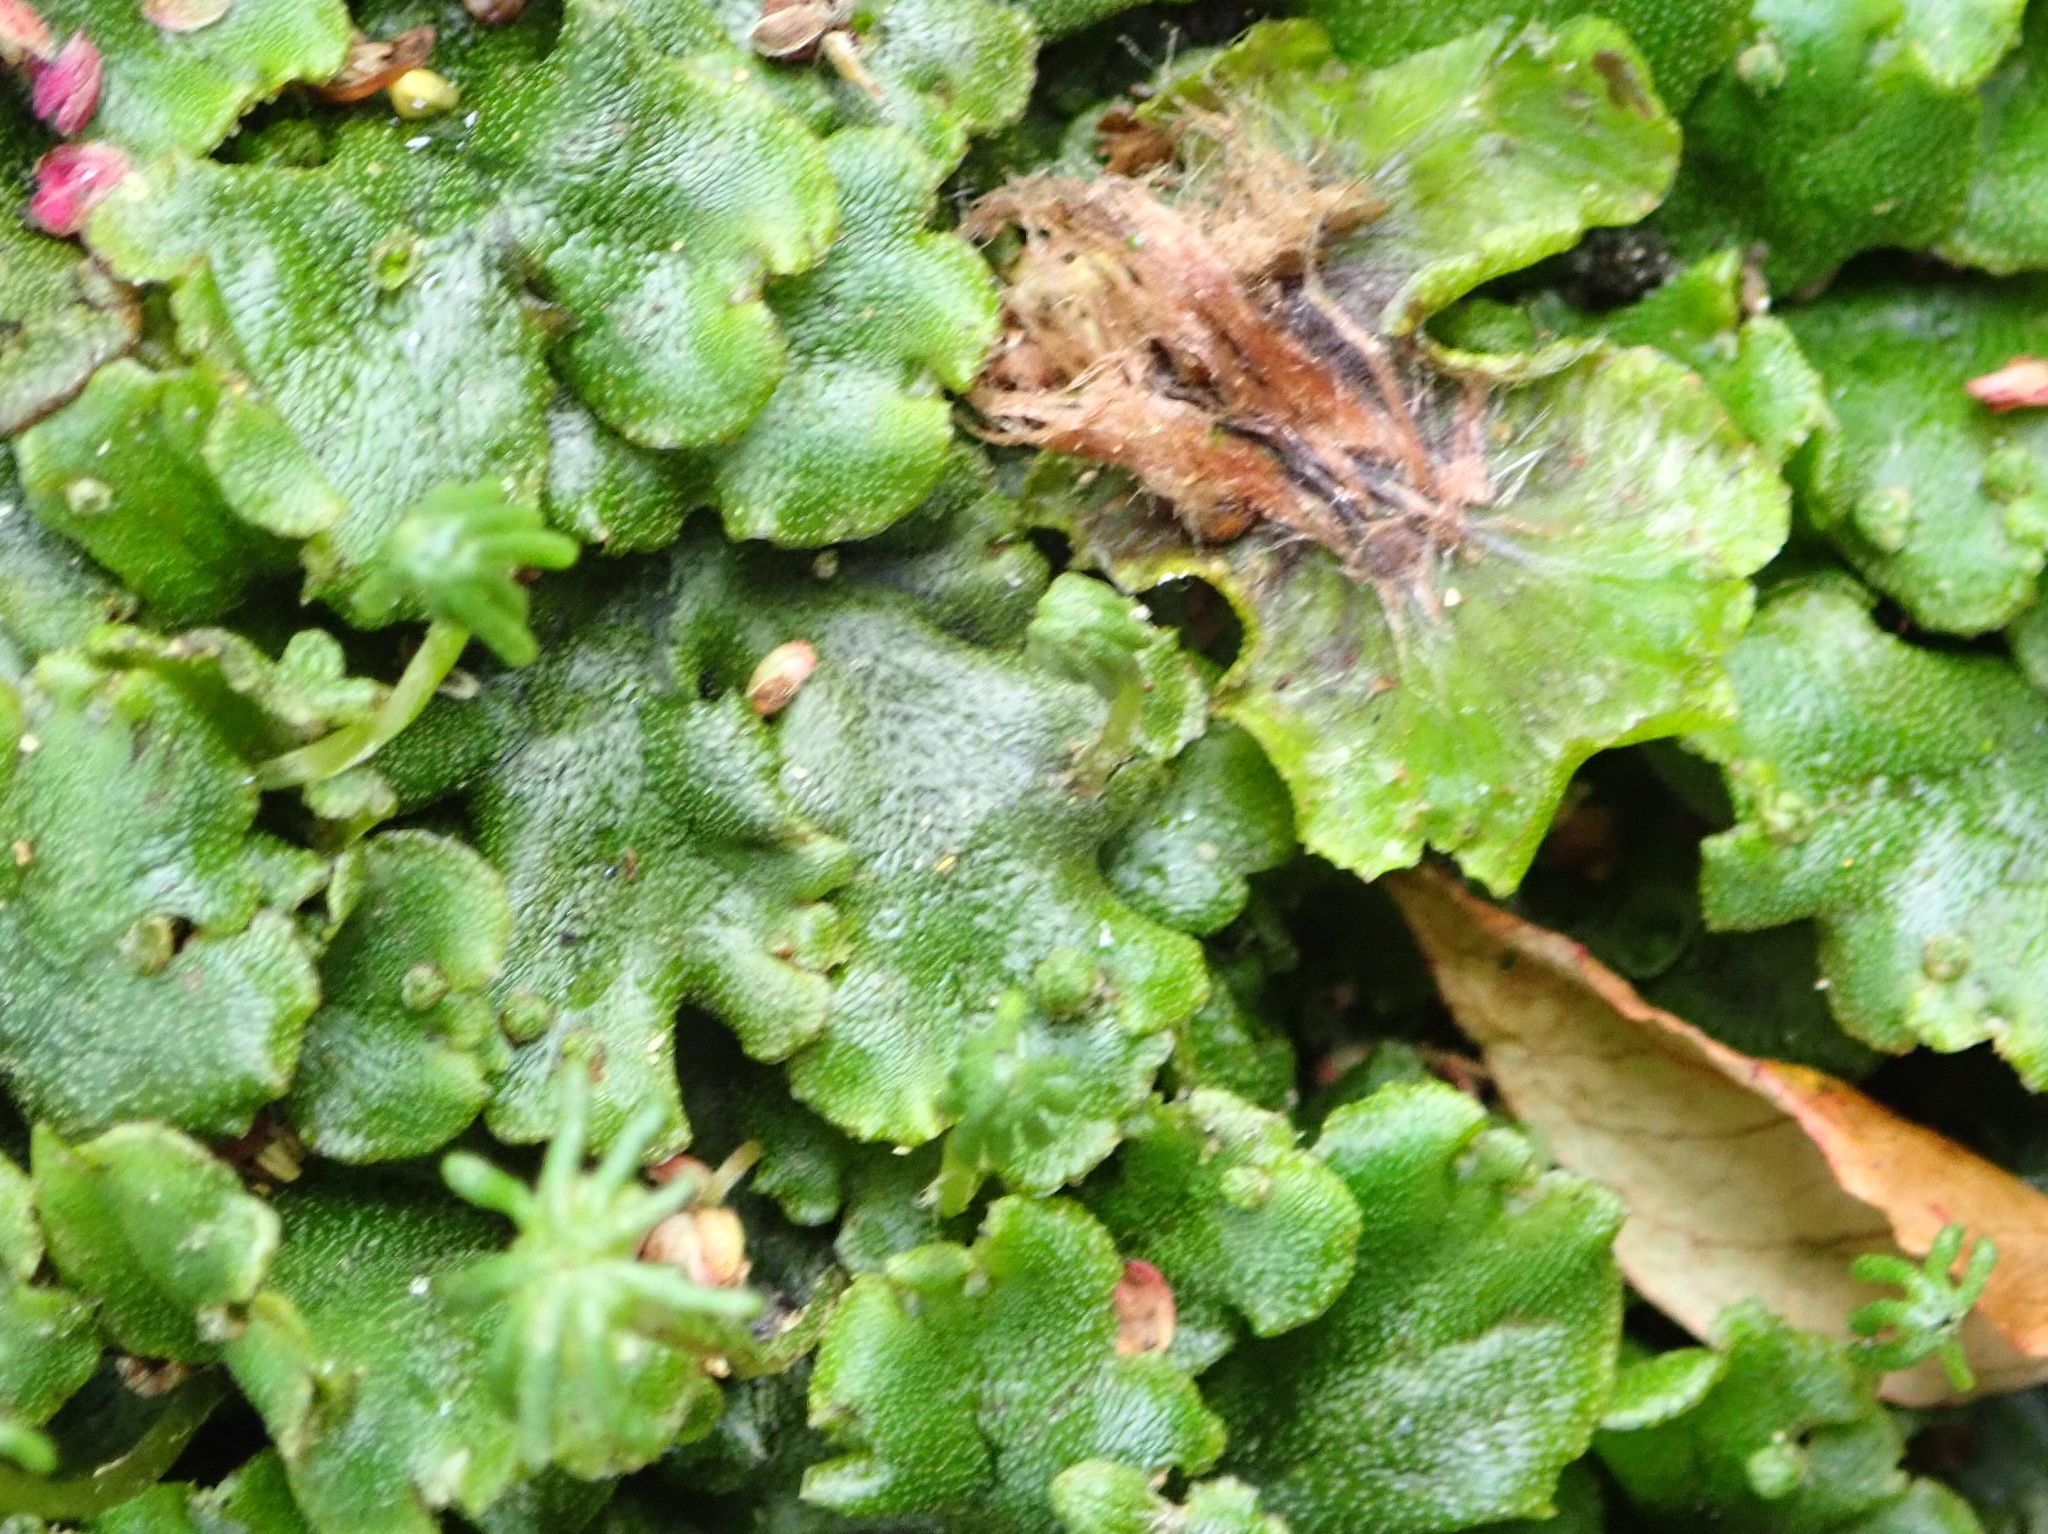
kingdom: Plantae
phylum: Marchantiophyta
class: Marchantiopsida
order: Marchantiales
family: Marchantiaceae
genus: Marchantia
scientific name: Marchantia berteroana
